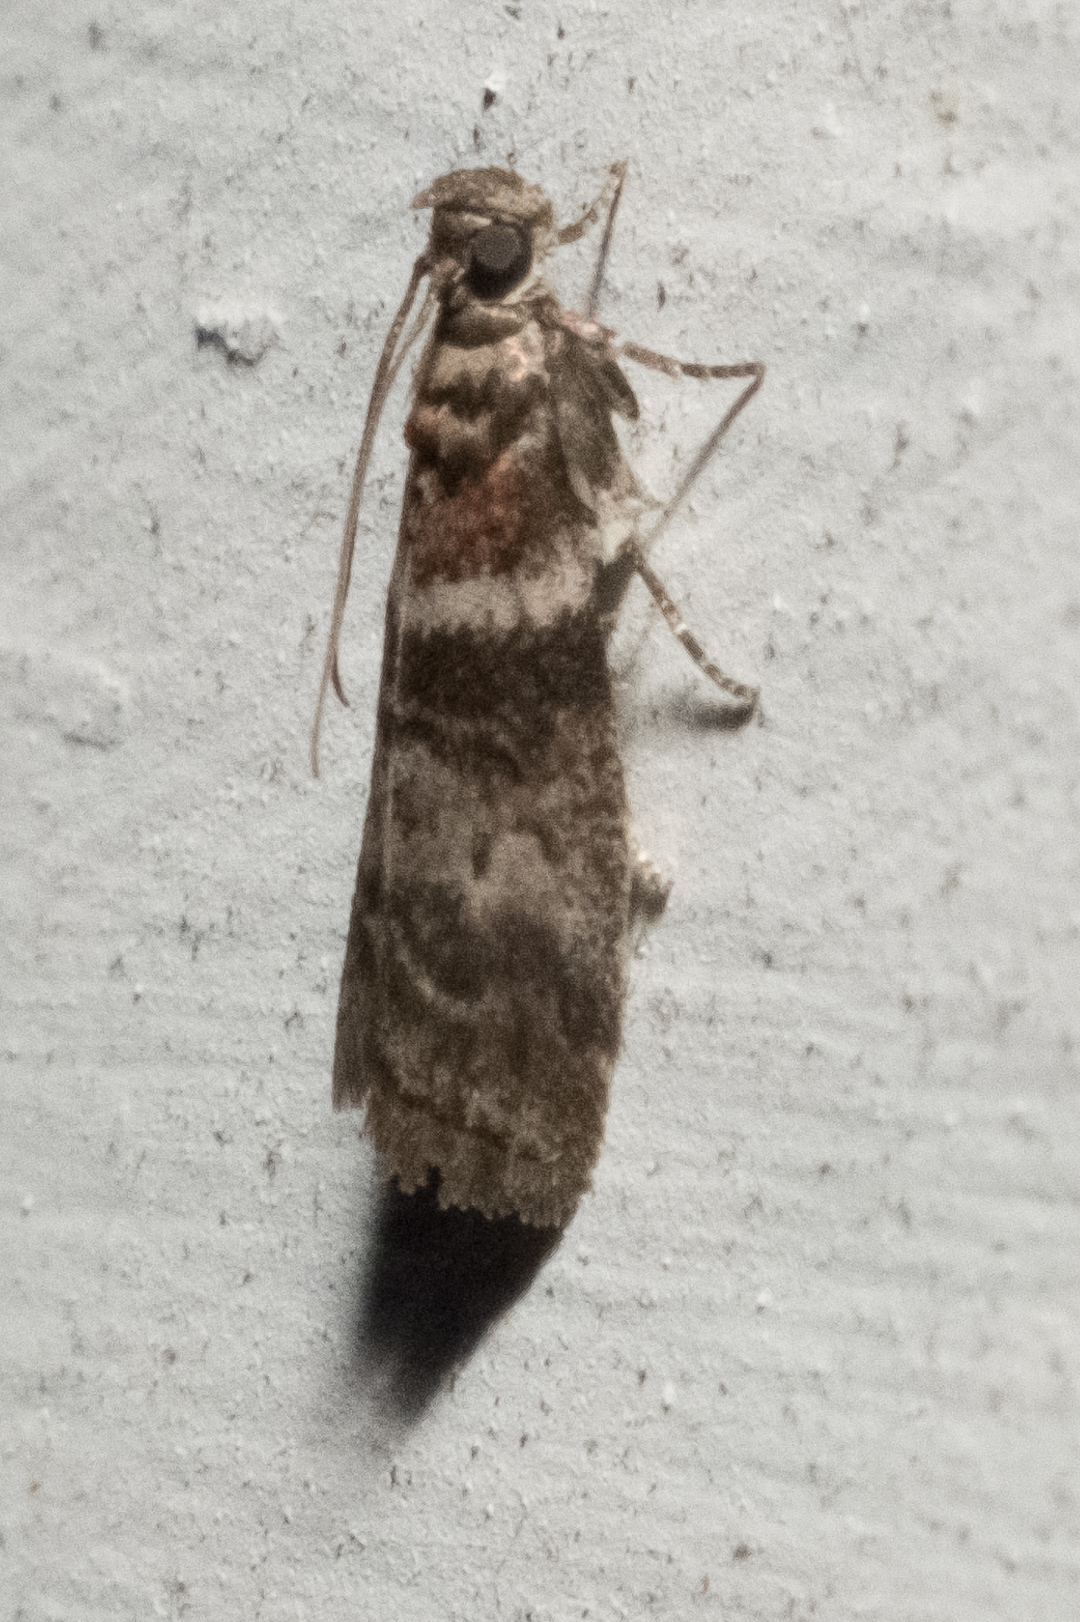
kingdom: Animalia
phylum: Arthropoda
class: Insecta
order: Lepidoptera
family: Pyralidae
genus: Sciota
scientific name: Sciota uvinella
